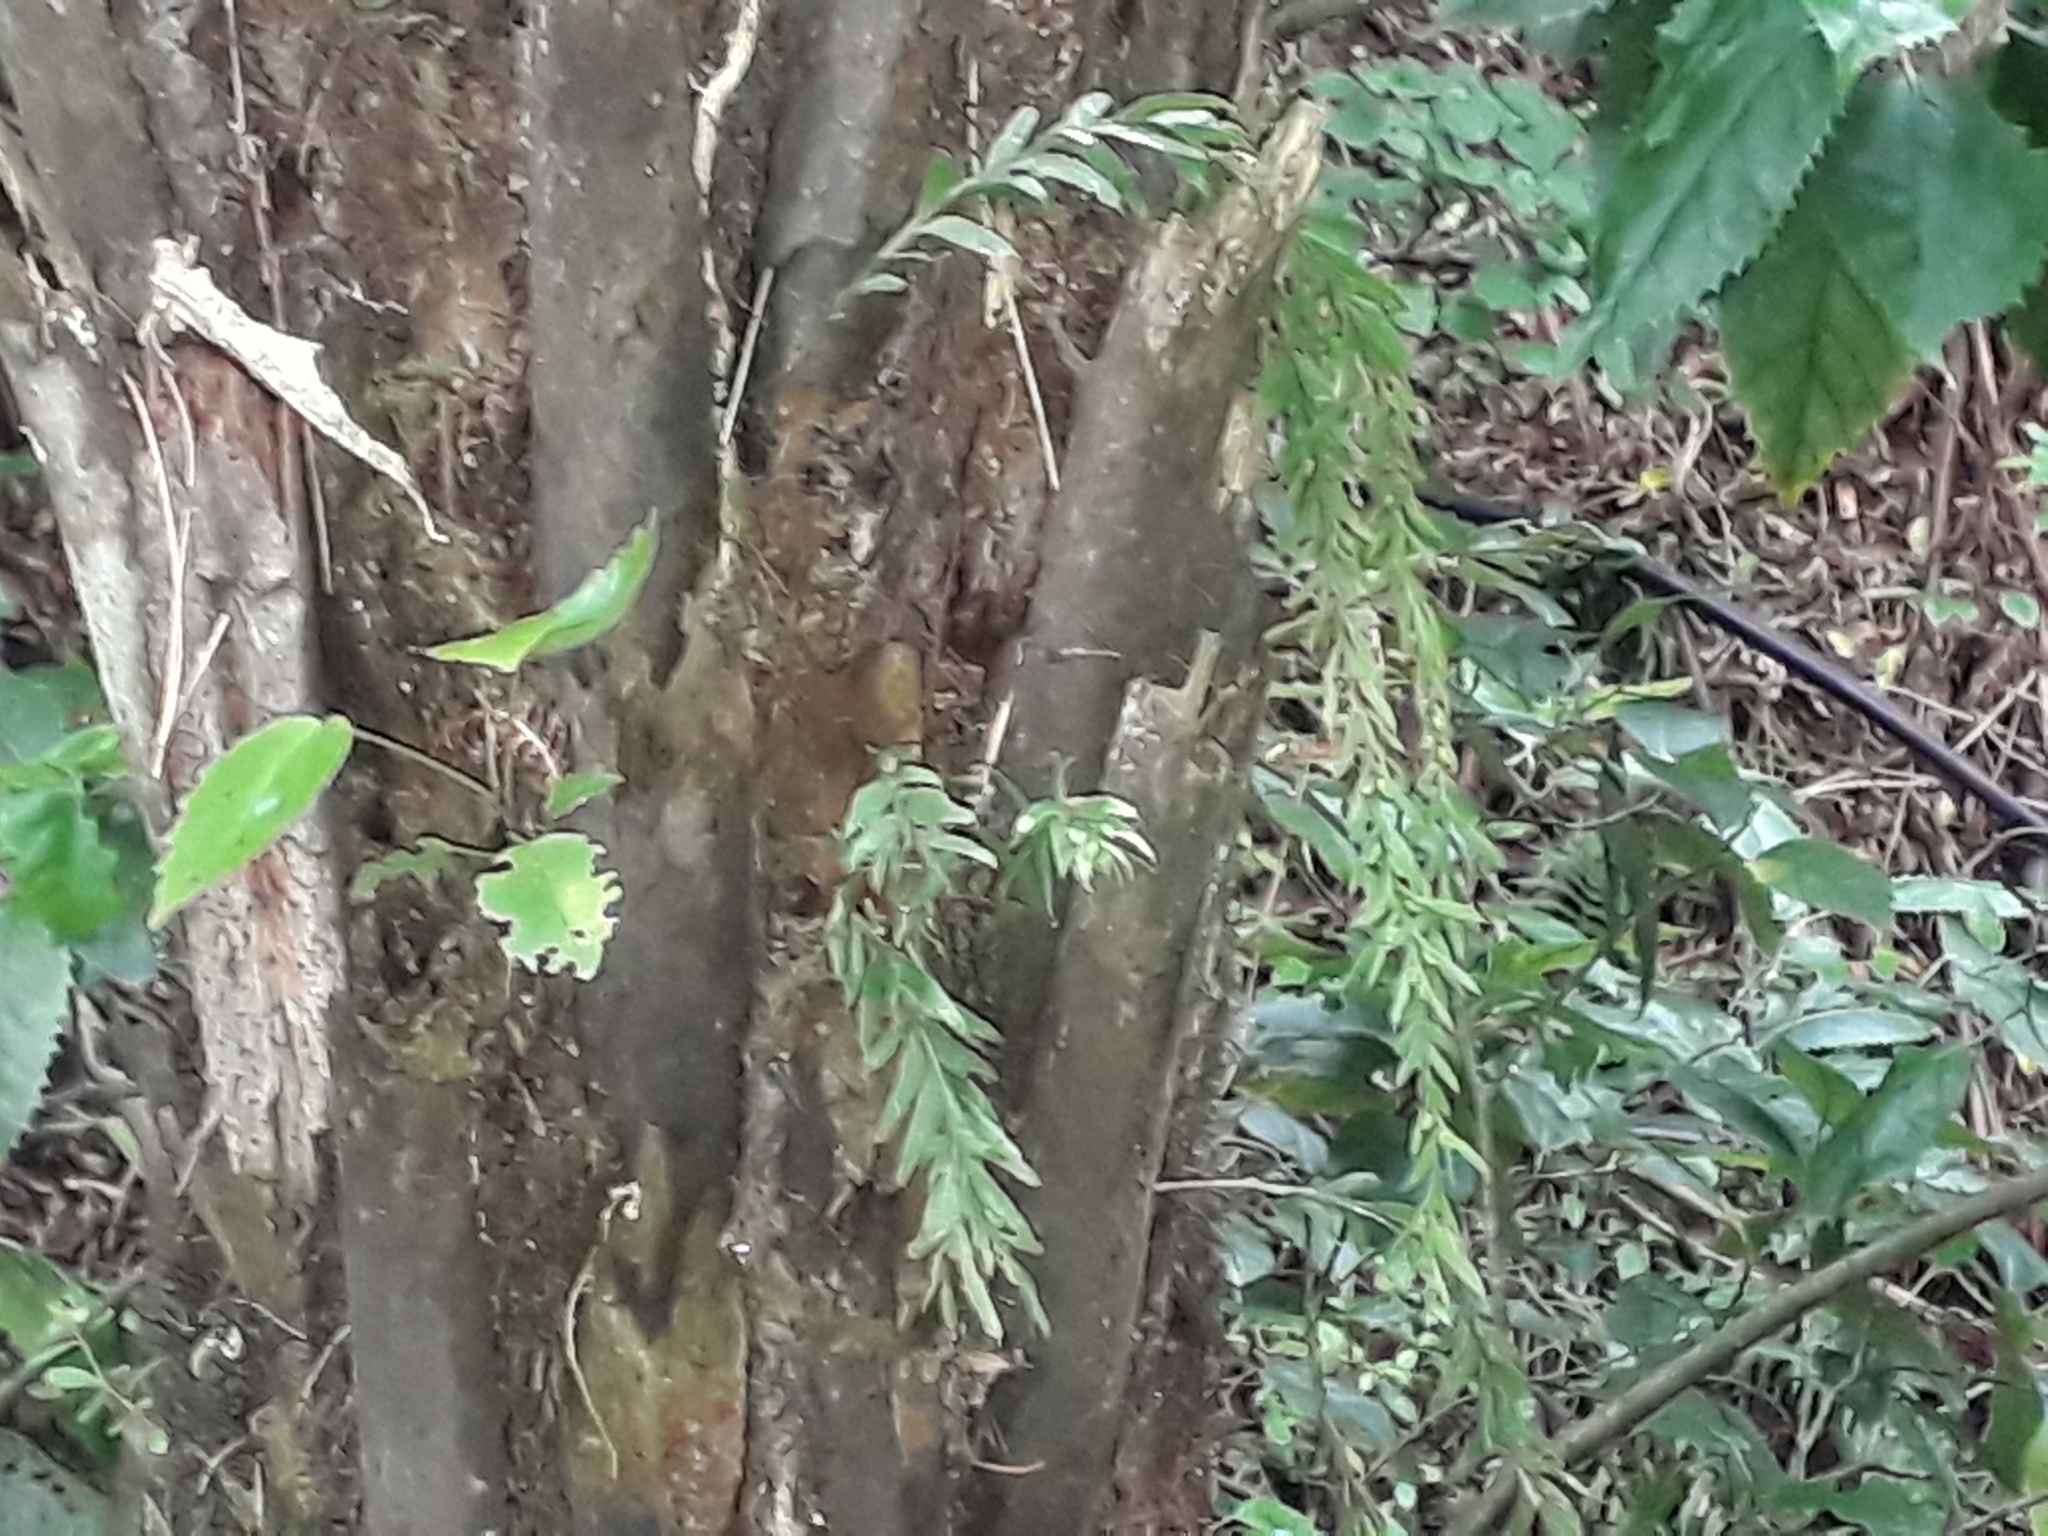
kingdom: Plantae
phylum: Tracheophyta
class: Polypodiopsida
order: Psilotales
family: Psilotaceae
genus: Tmesipteris
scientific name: Tmesipteris elongata
